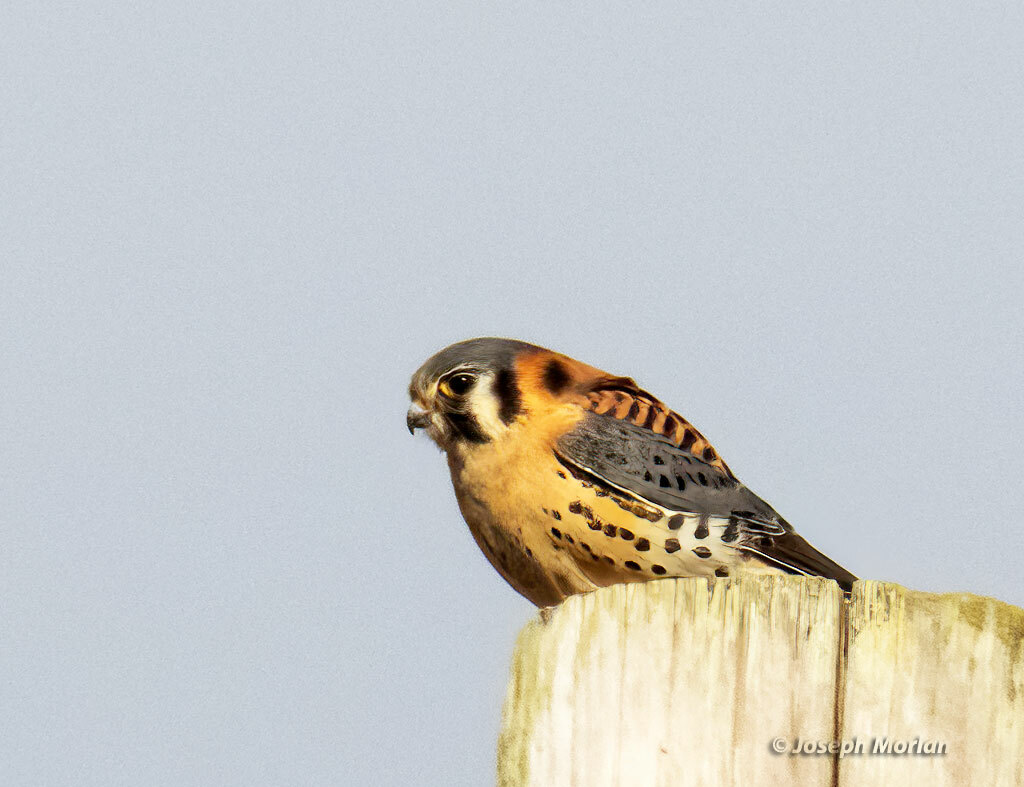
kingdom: Animalia
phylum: Chordata
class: Aves
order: Falconiformes
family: Falconidae
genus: Falco
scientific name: Falco sparverius
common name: American kestrel
